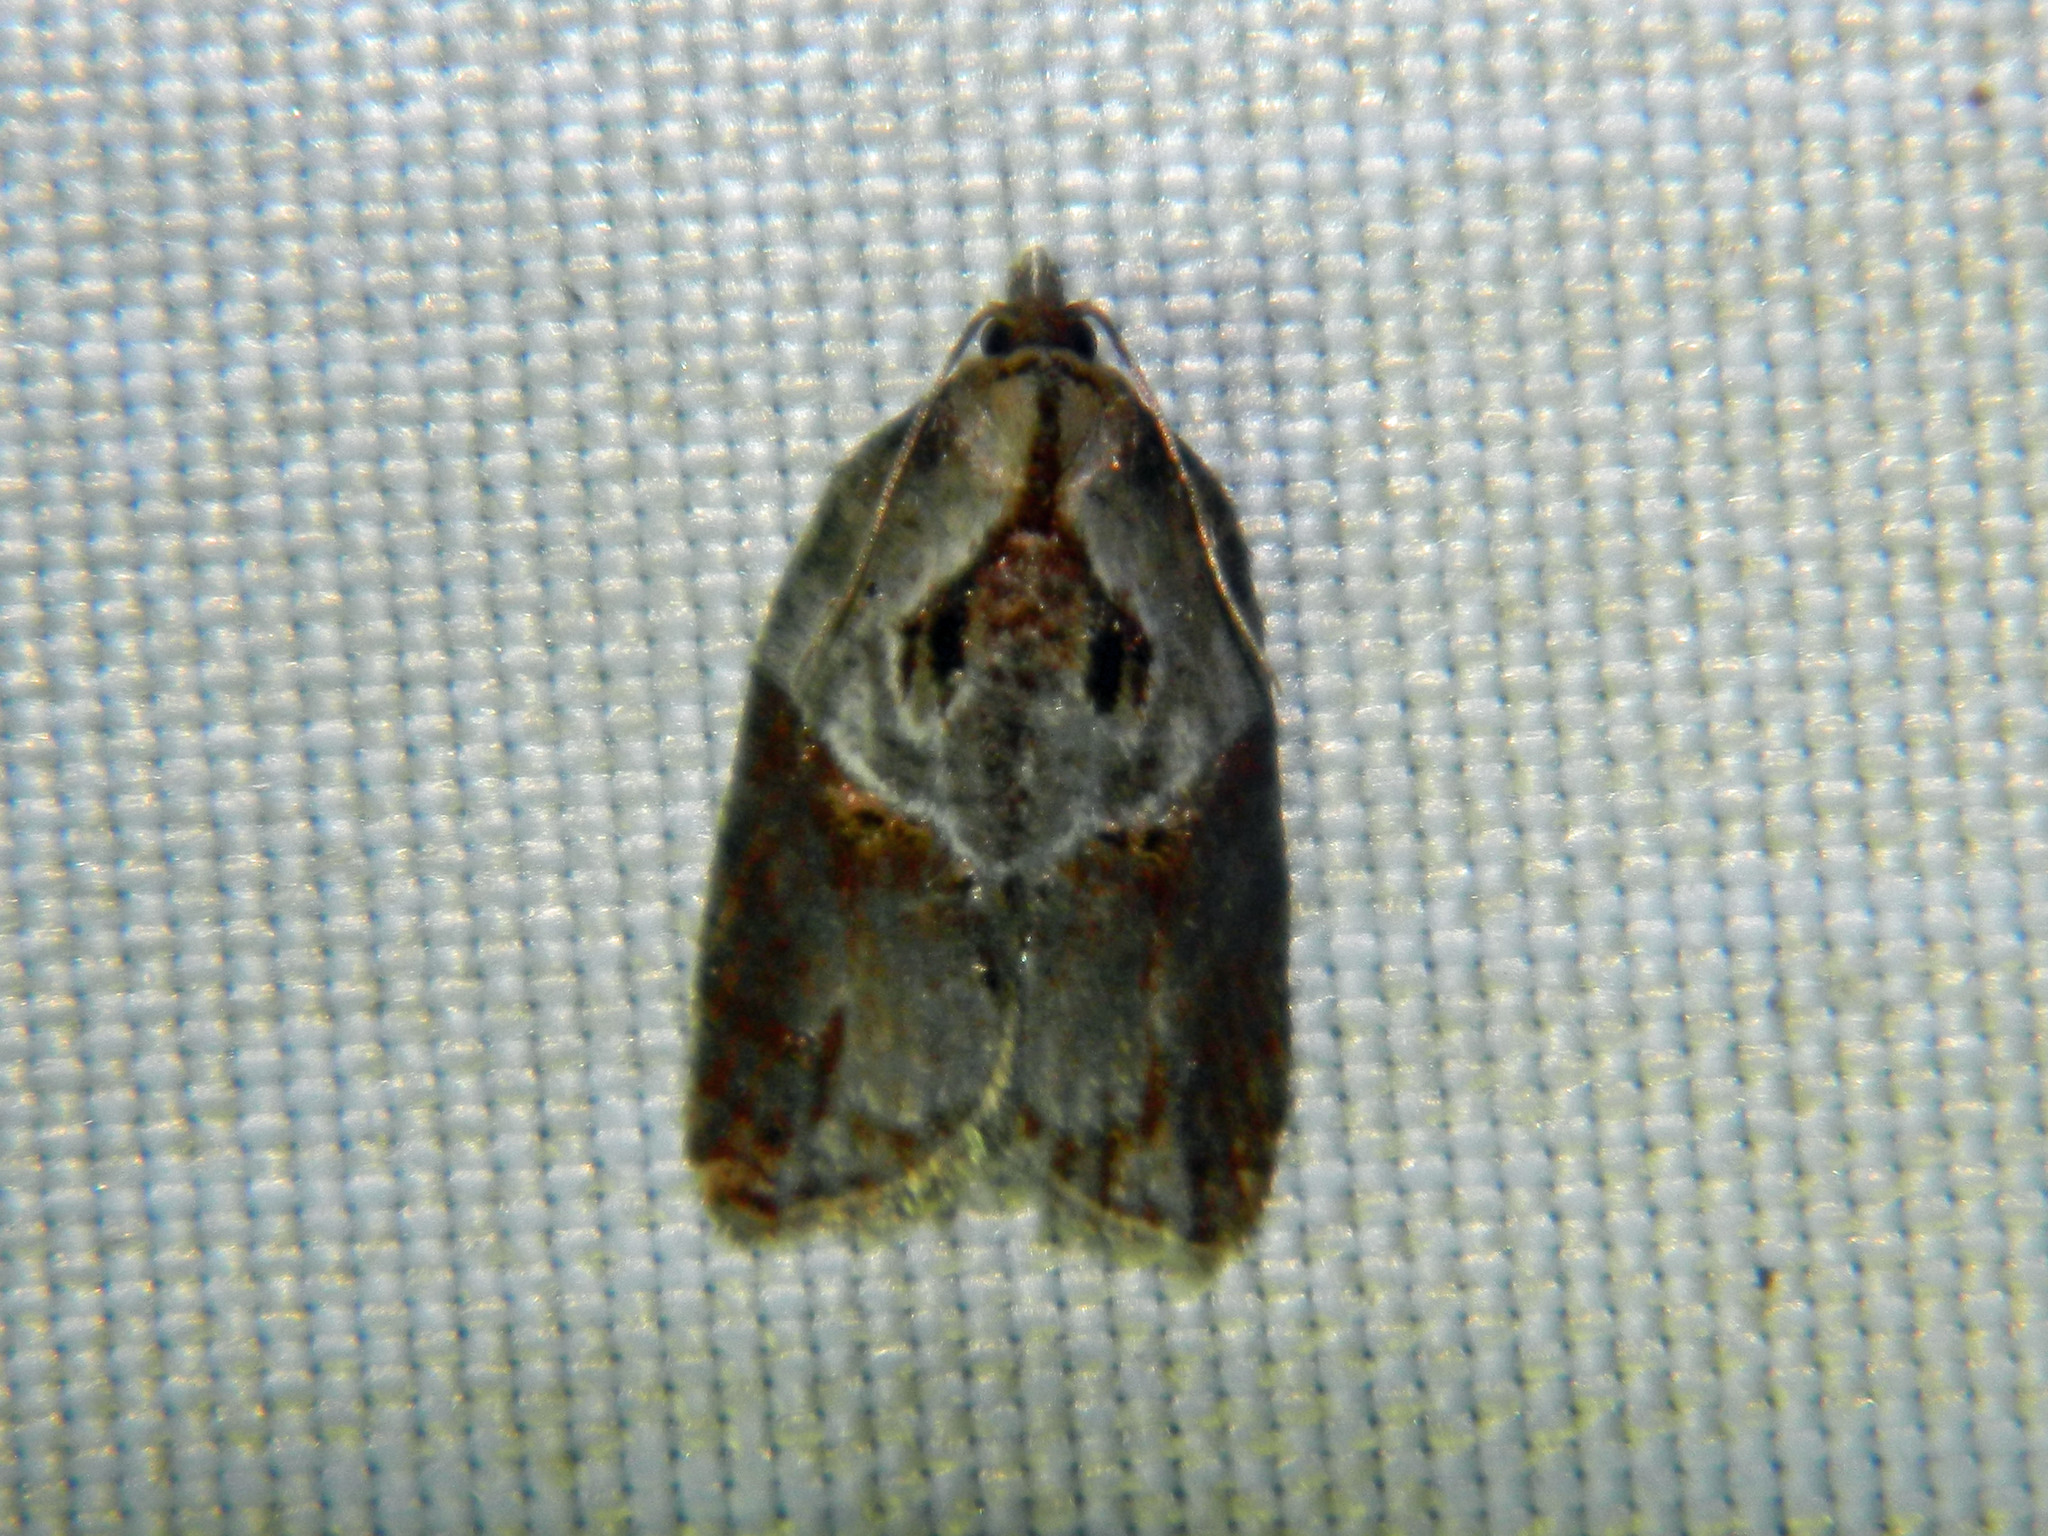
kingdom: Animalia
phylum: Arthropoda
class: Insecta
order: Lepidoptera
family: Tortricidae
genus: Acleris
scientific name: Acleris inana
